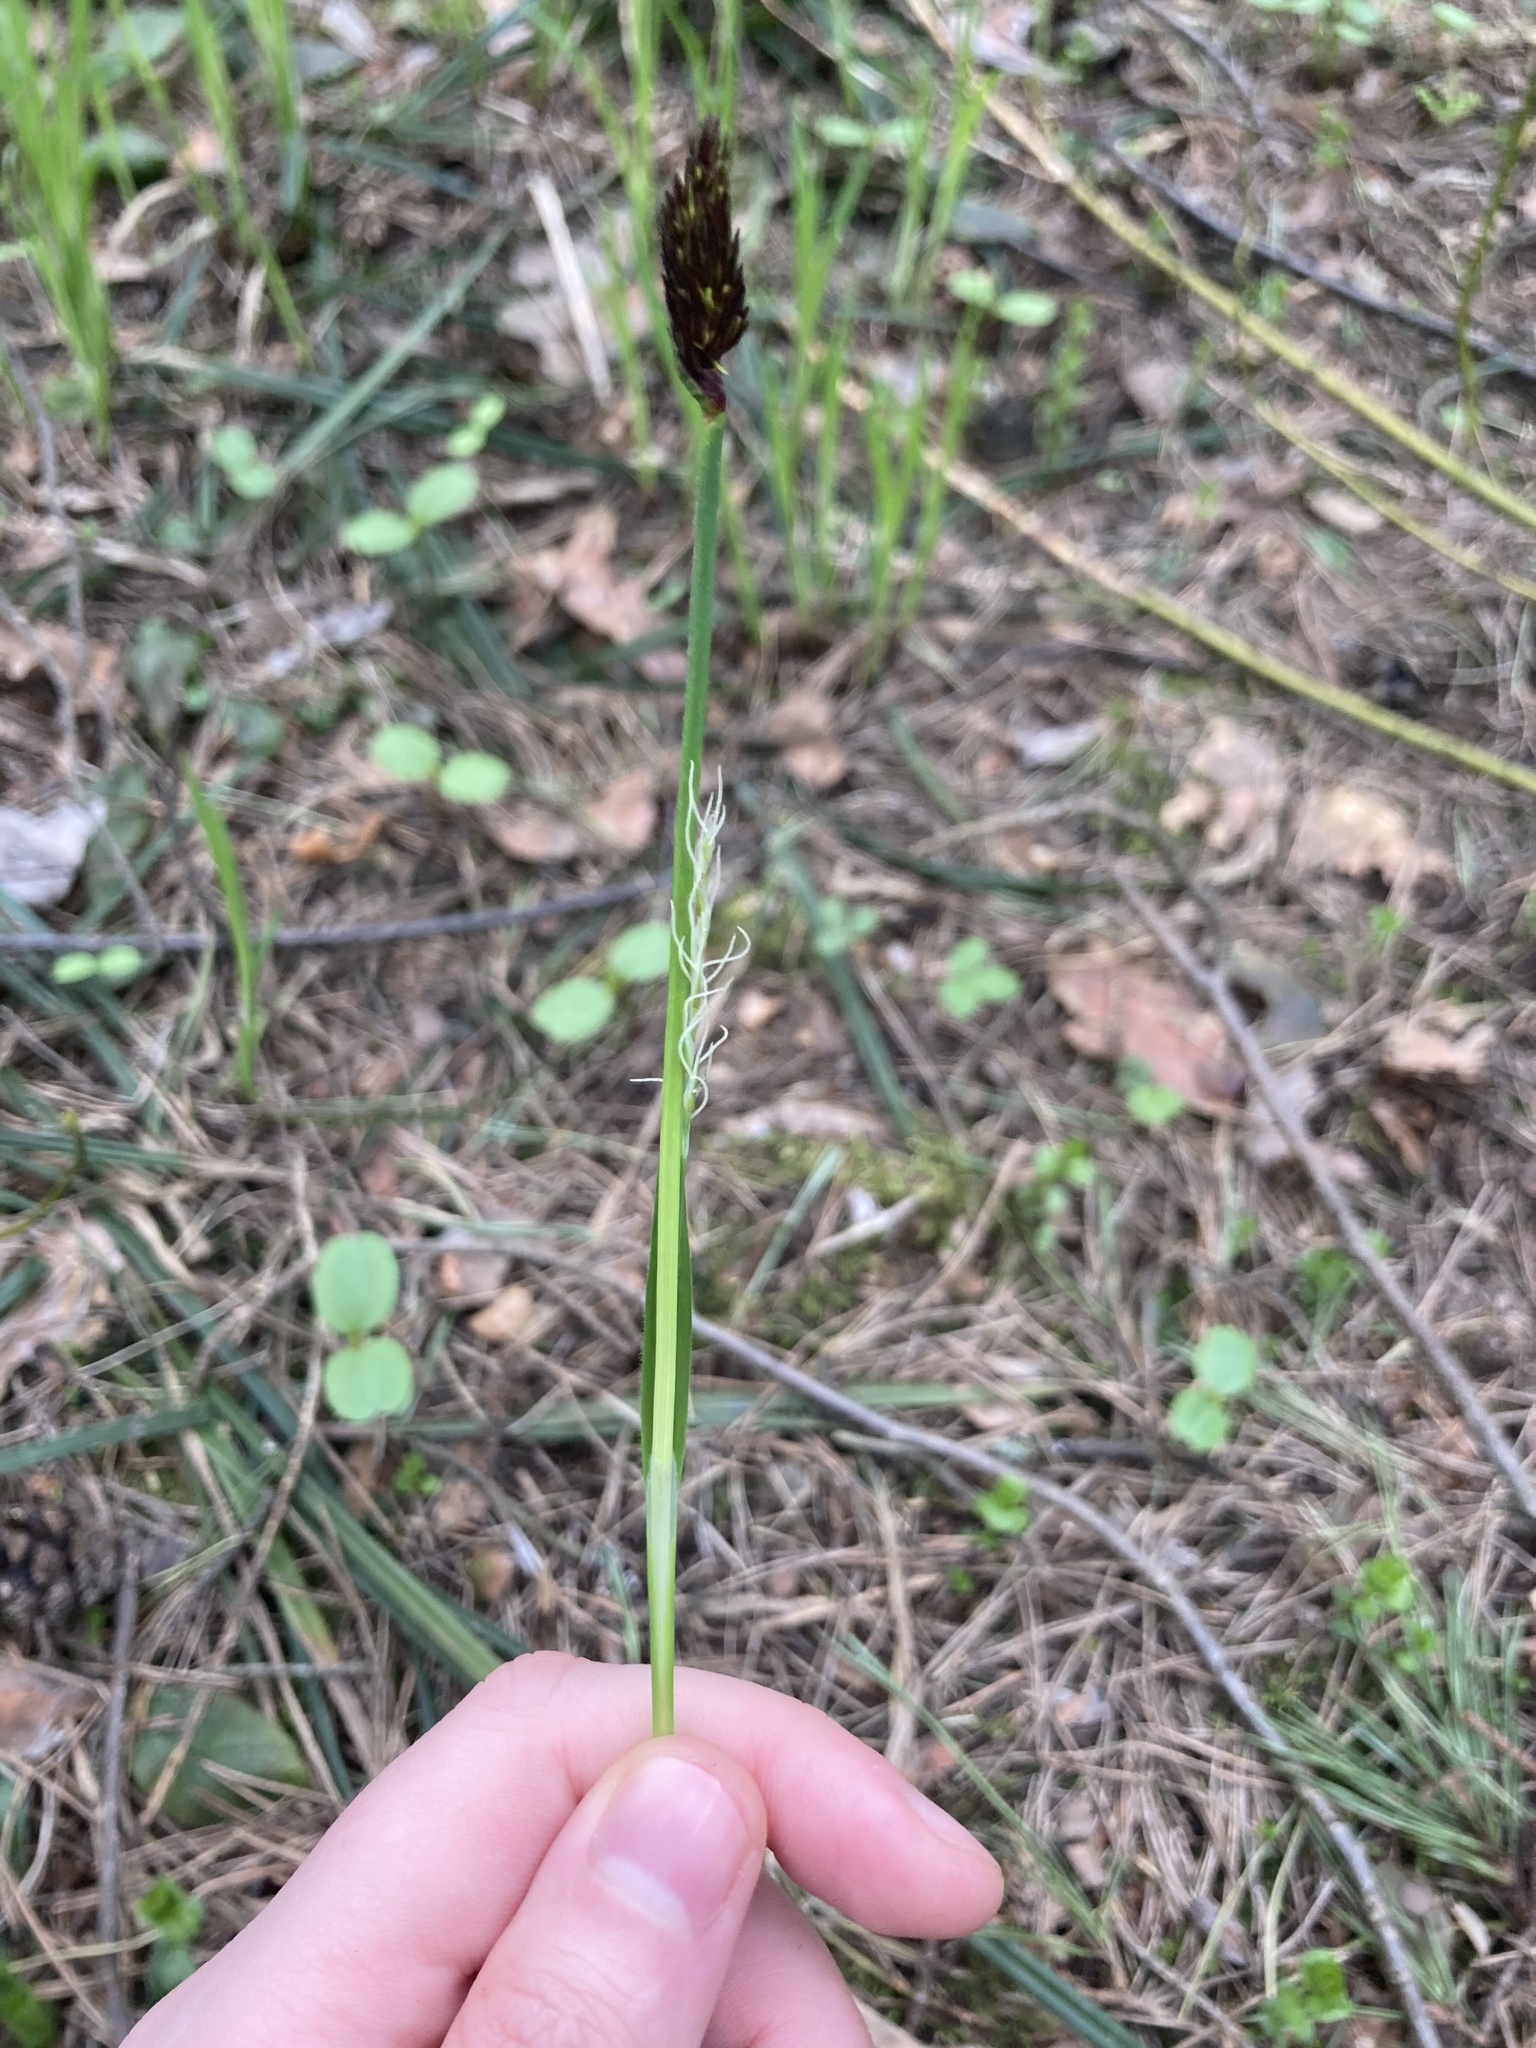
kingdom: Plantae
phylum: Tracheophyta
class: Liliopsida
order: Poales
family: Cyperaceae
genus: Carex
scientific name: Carex pilosa
